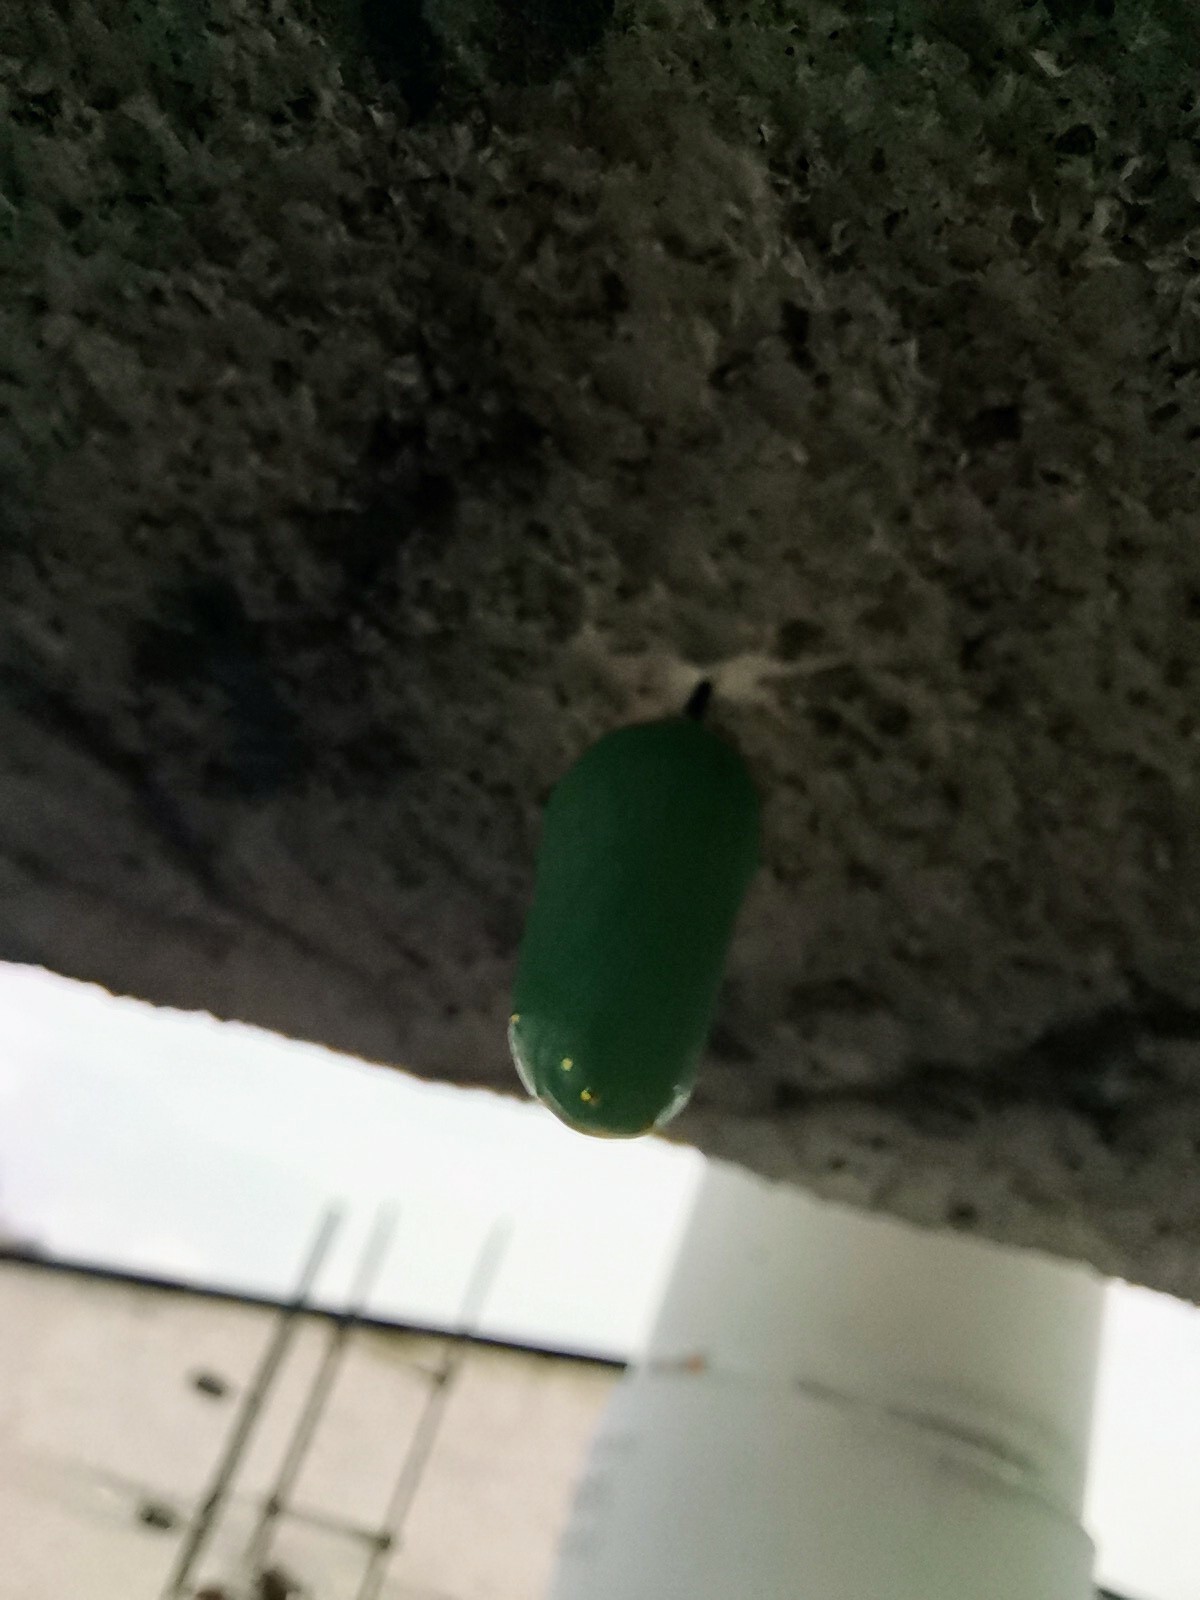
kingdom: Animalia
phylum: Arthropoda
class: Insecta
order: Lepidoptera
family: Nymphalidae
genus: Danaus
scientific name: Danaus plexippus
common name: Monarch
